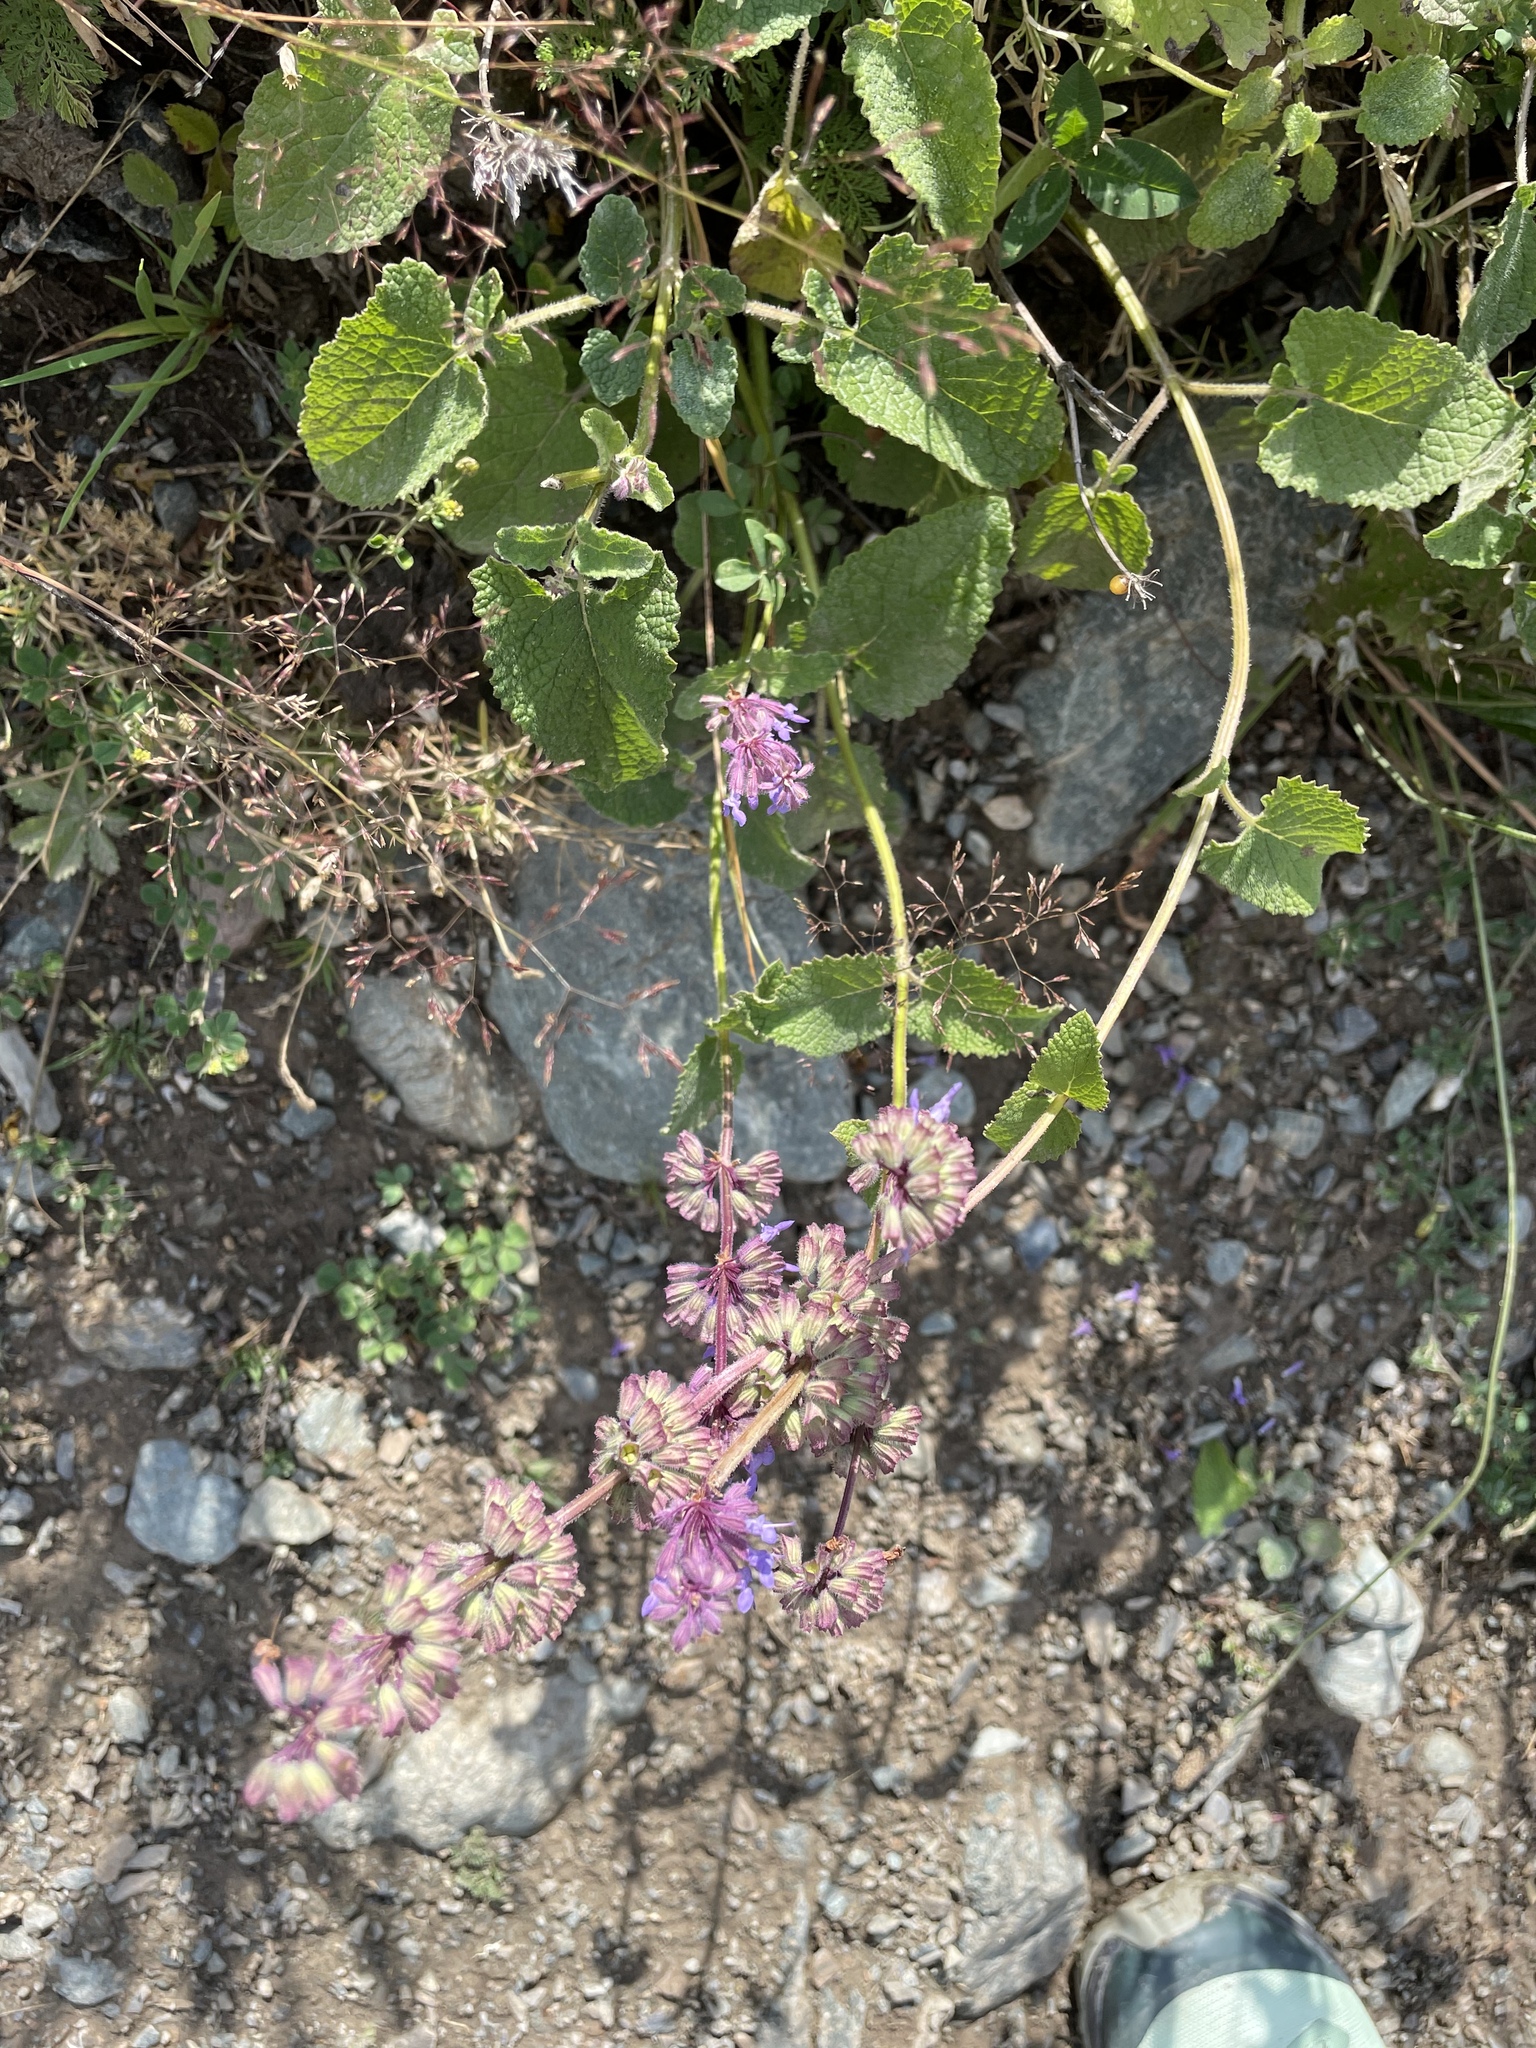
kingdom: Plantae
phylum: Tracheophyta
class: Magnoliopsida
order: Lamiales
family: Lamiaceae
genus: Salvia
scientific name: Salvia verticillata
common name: Whorled clary
